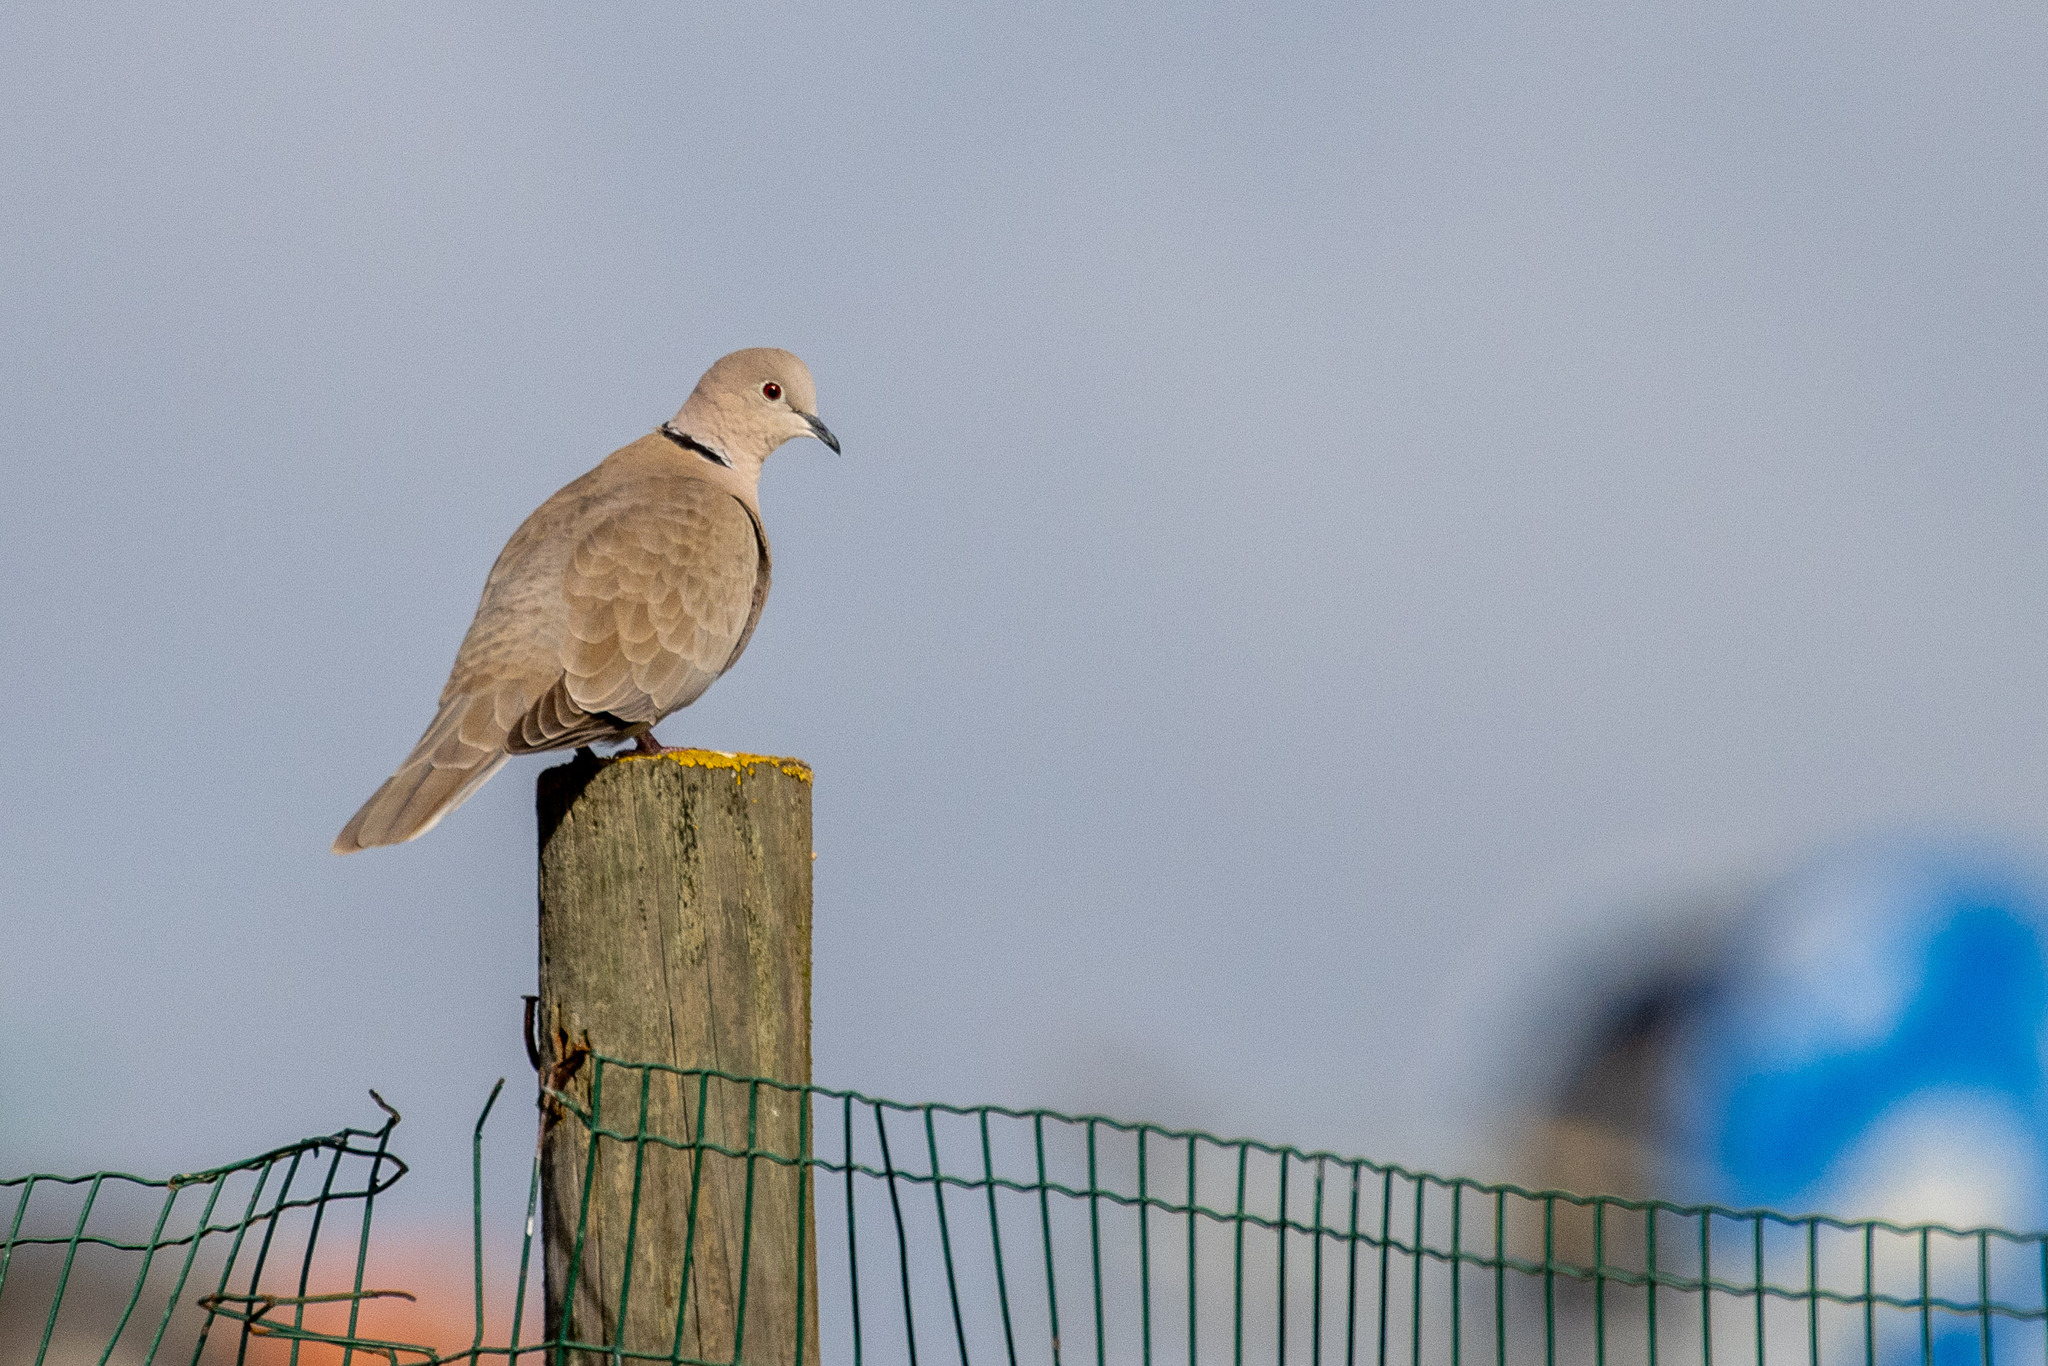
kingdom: Animalia
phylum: Chordata
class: Aves
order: Columbiformes
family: Columbidae
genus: Streptopelia
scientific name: Streptopelia decaocto
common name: Eurasian collared dove
